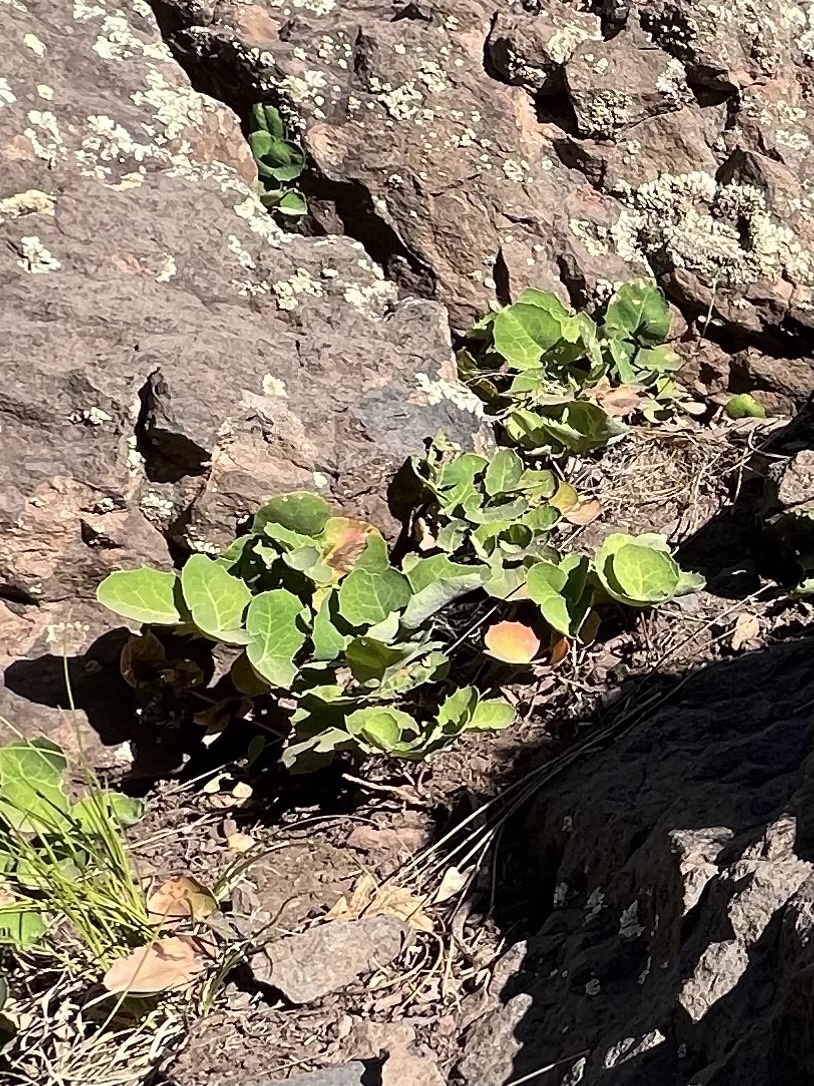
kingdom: Plantae
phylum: Tracheophyta
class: Magnoliopsida
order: Ranunculales
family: Berberidaceae
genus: Mahonia
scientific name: Mahonia repens
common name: Creeping oregon-grape
